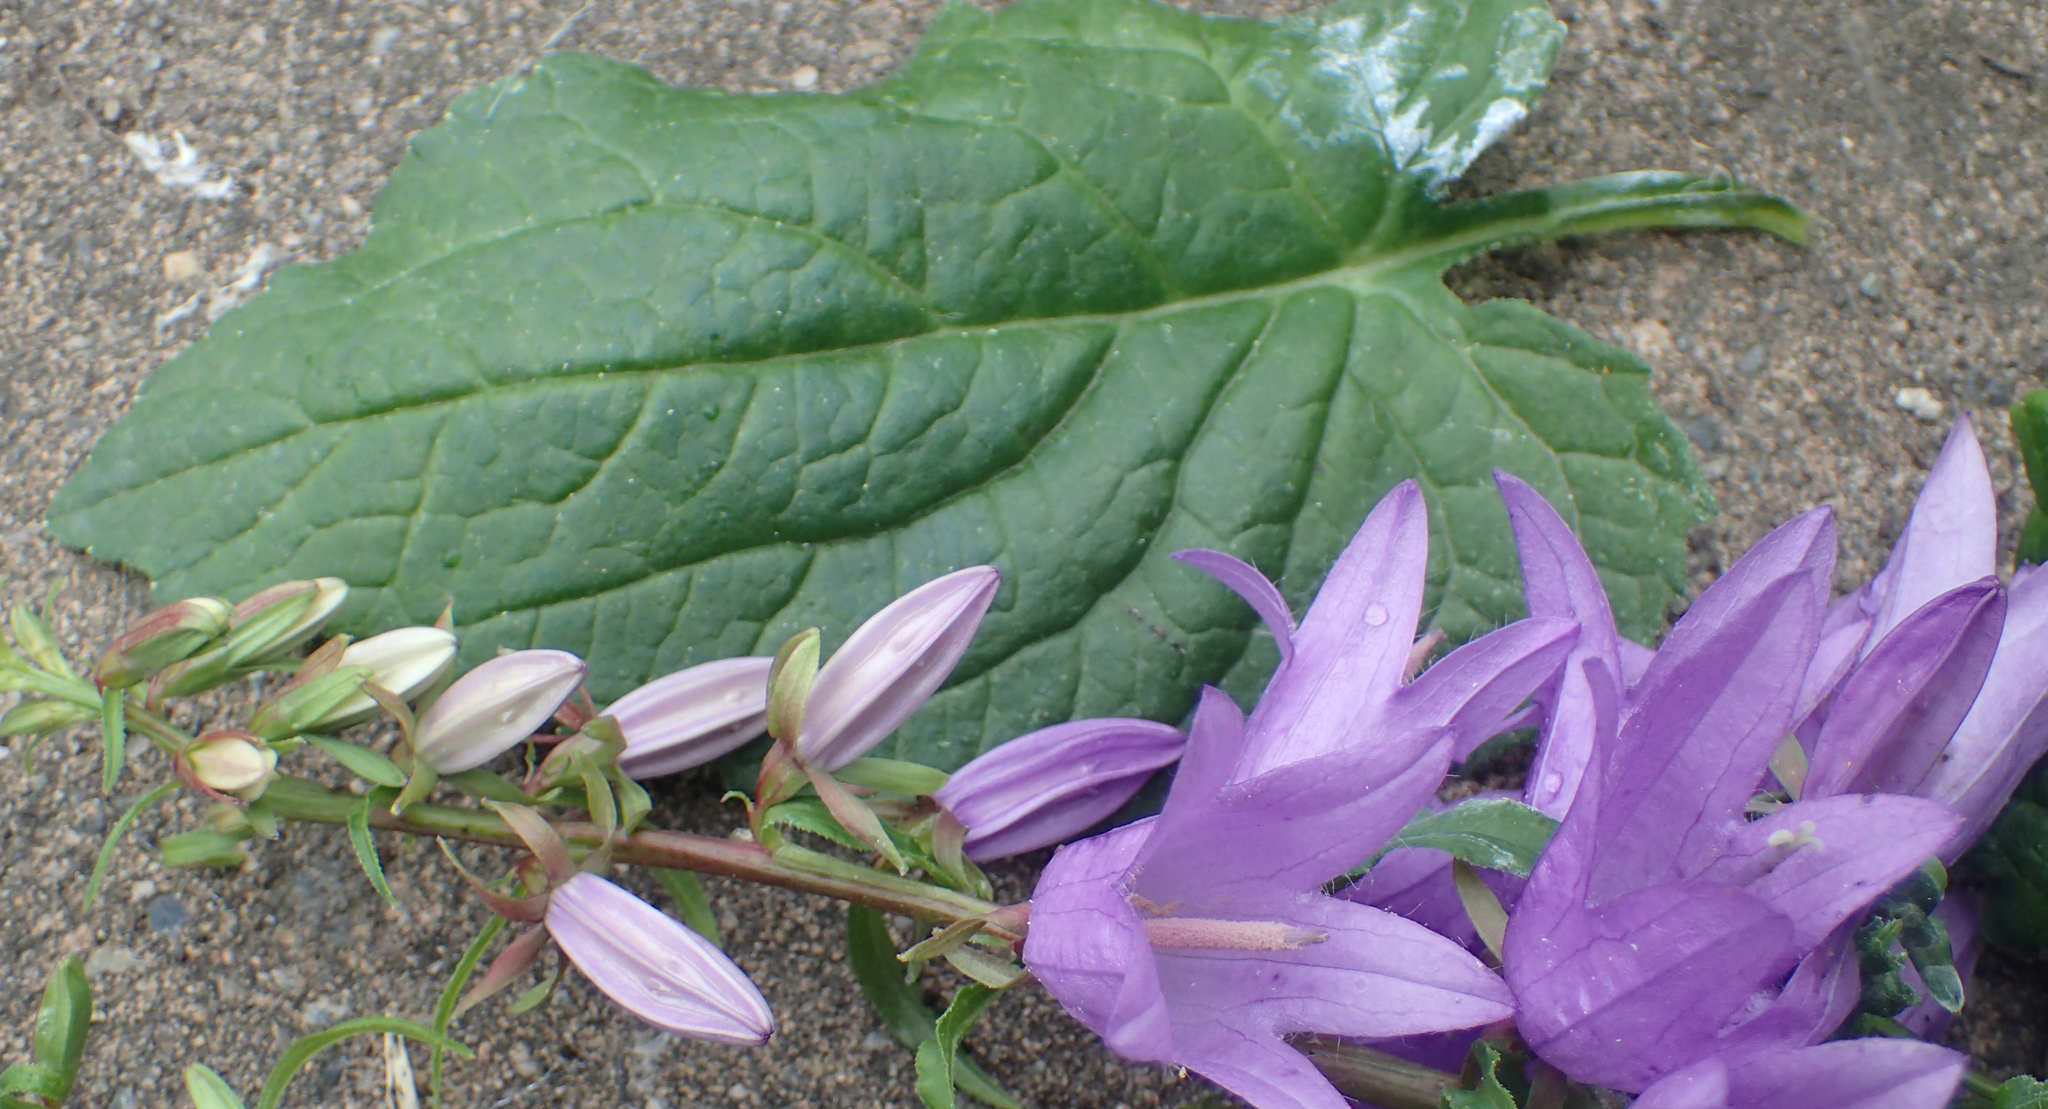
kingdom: Plantae
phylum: Tracheophyta
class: Magnoliopsida
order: Asterales
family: Campanulaceae
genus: Campanula
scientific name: Campanula rapunculoides
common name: Creeping bellflower
